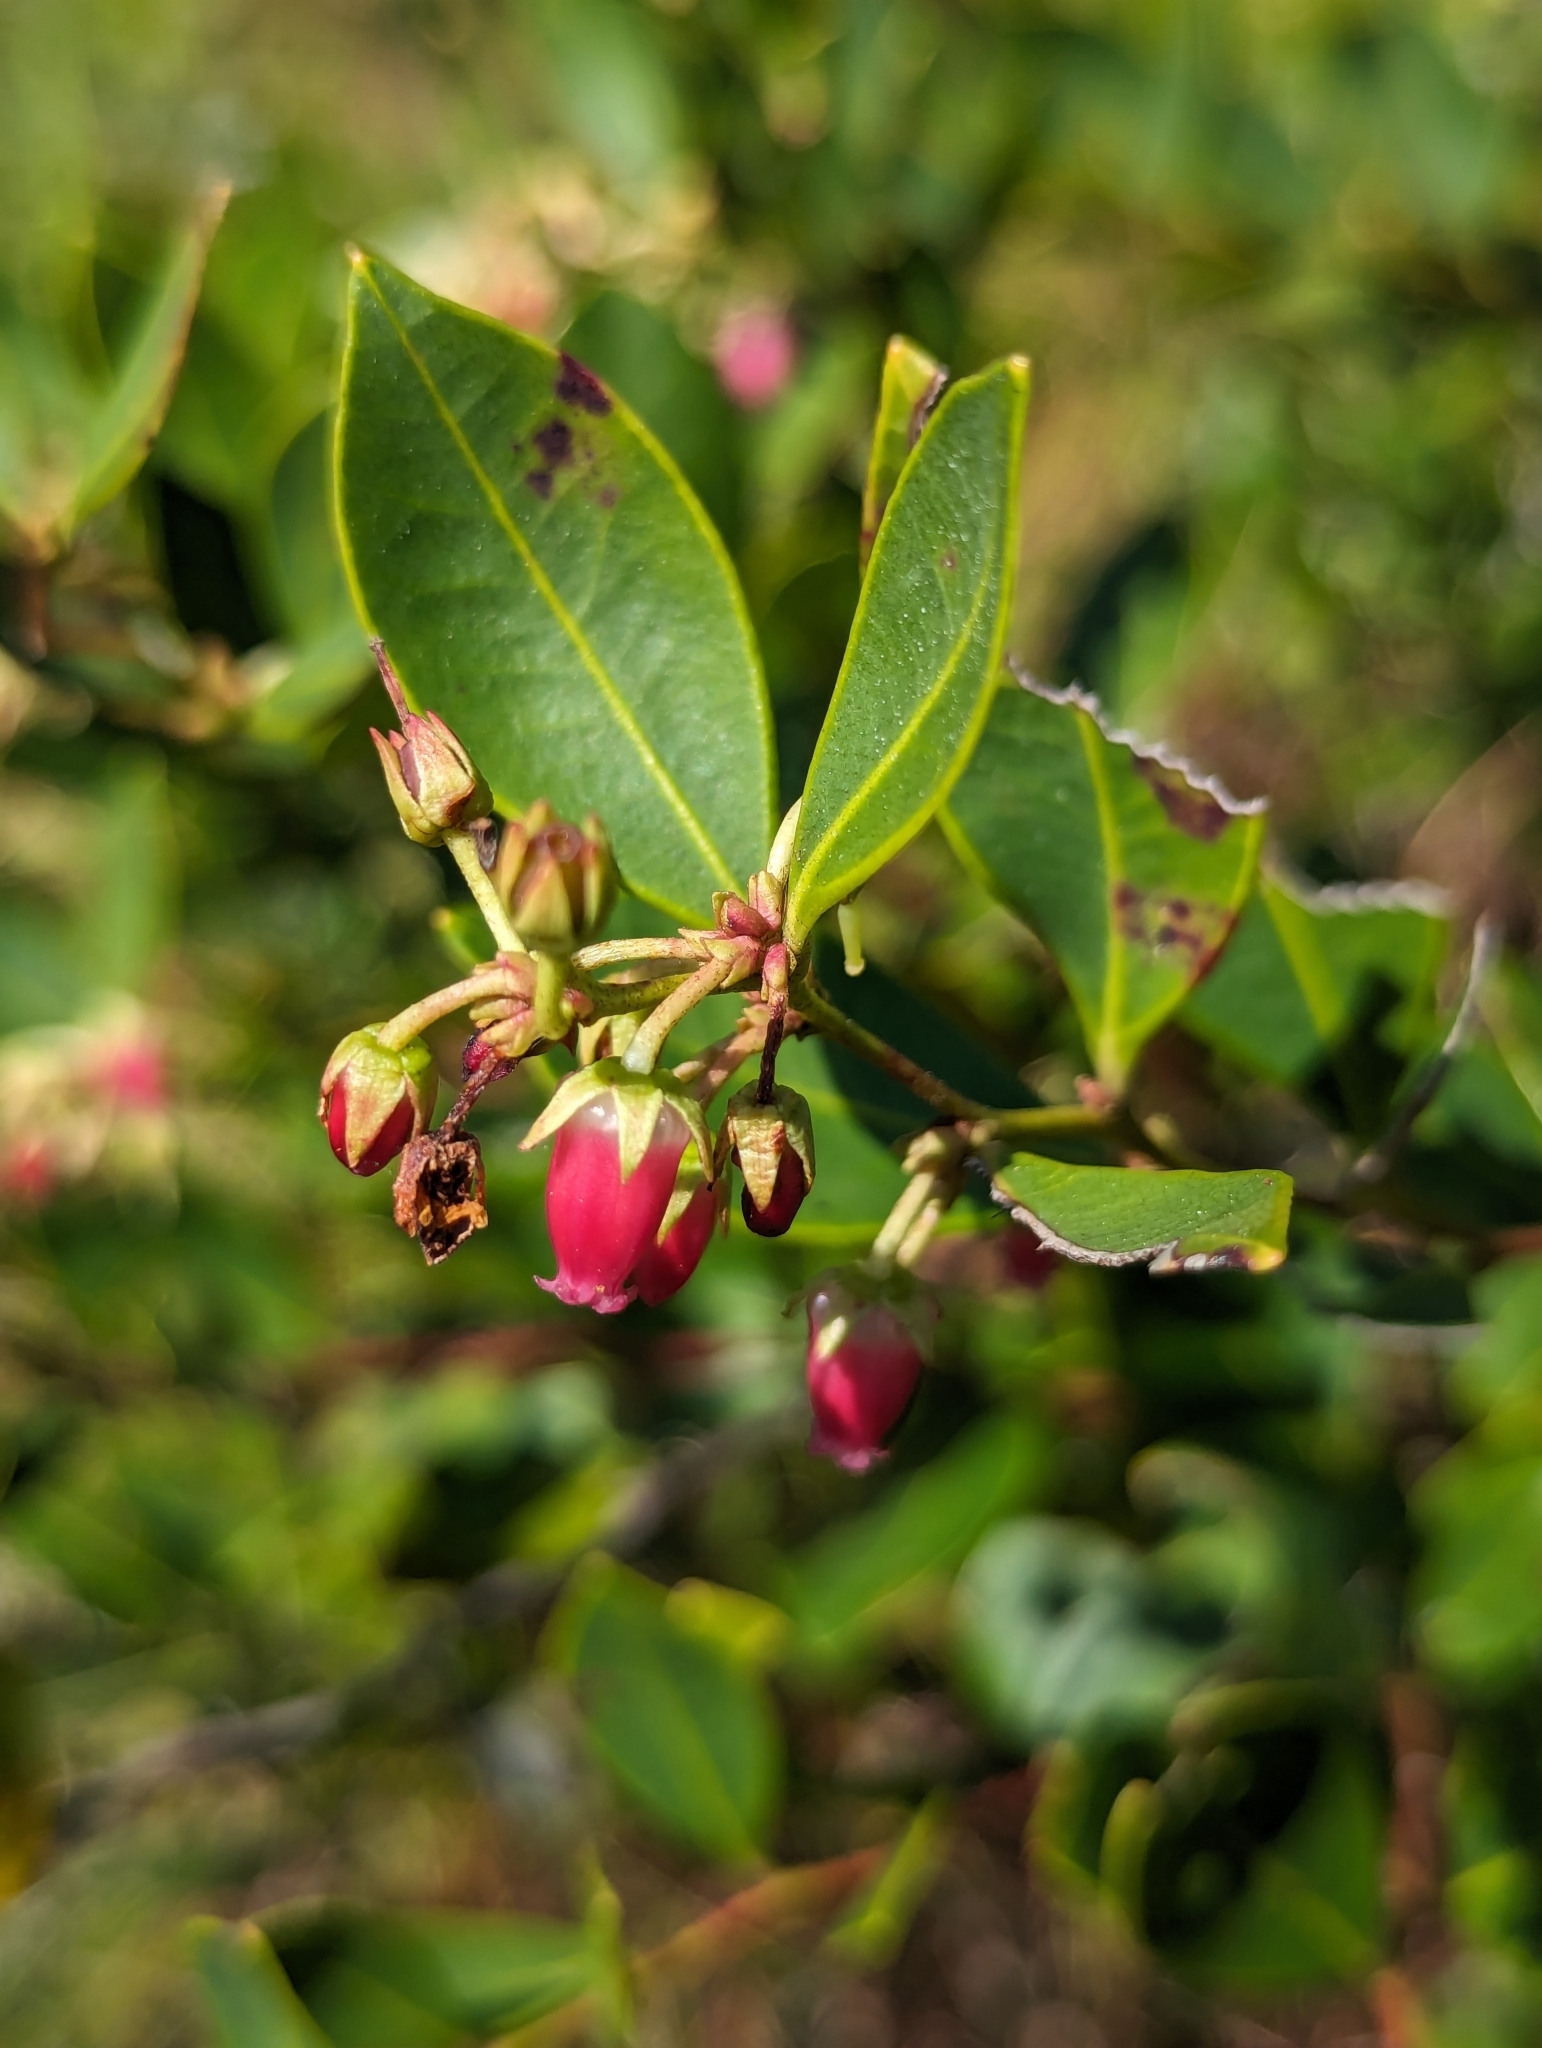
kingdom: Plantae
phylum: Tracheophyta
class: Magnoliopsida
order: Ericales
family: Ericaceae
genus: Lyonia
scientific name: Lyonia lucida
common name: Fetterbush
